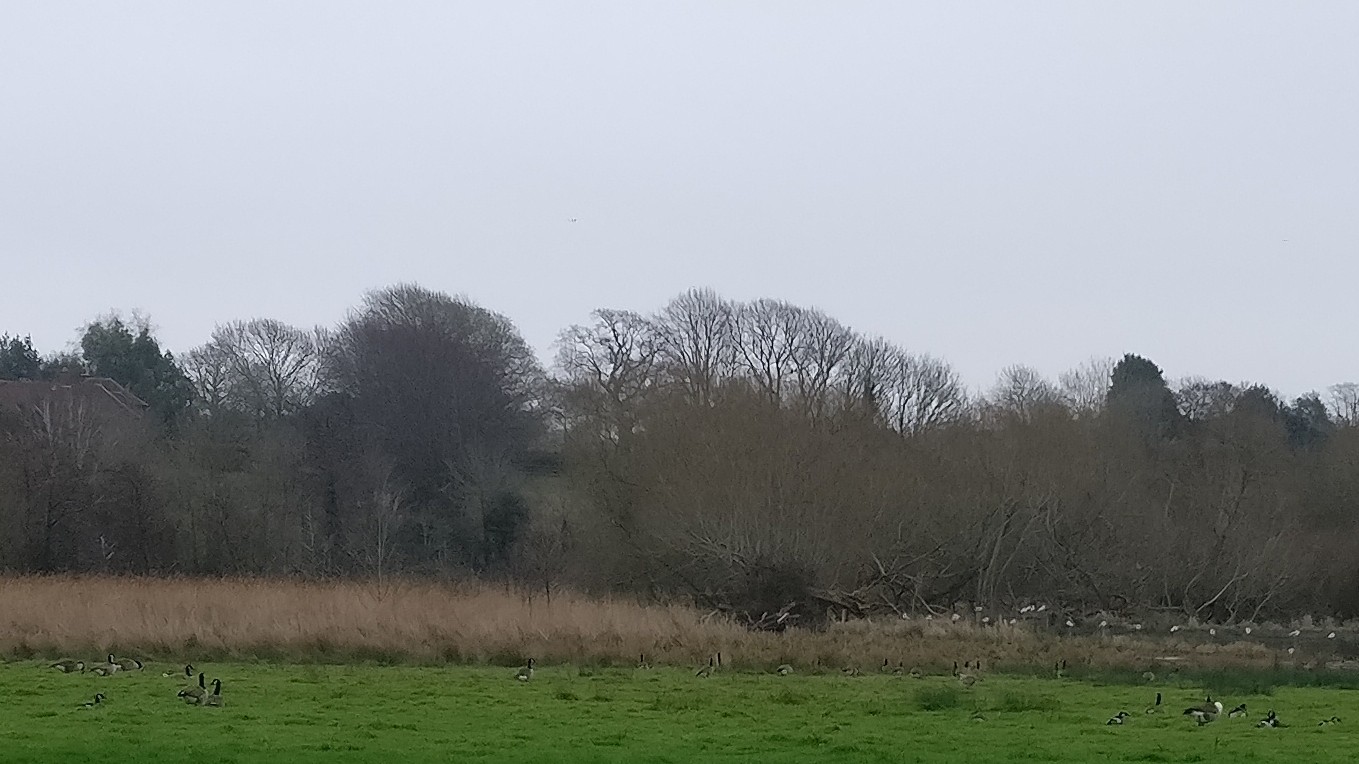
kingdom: Animalia
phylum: Chordata
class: Aves
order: Anseriformes
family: Anatidae
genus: Branta
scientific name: Branta canadensis
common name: Canada goose
